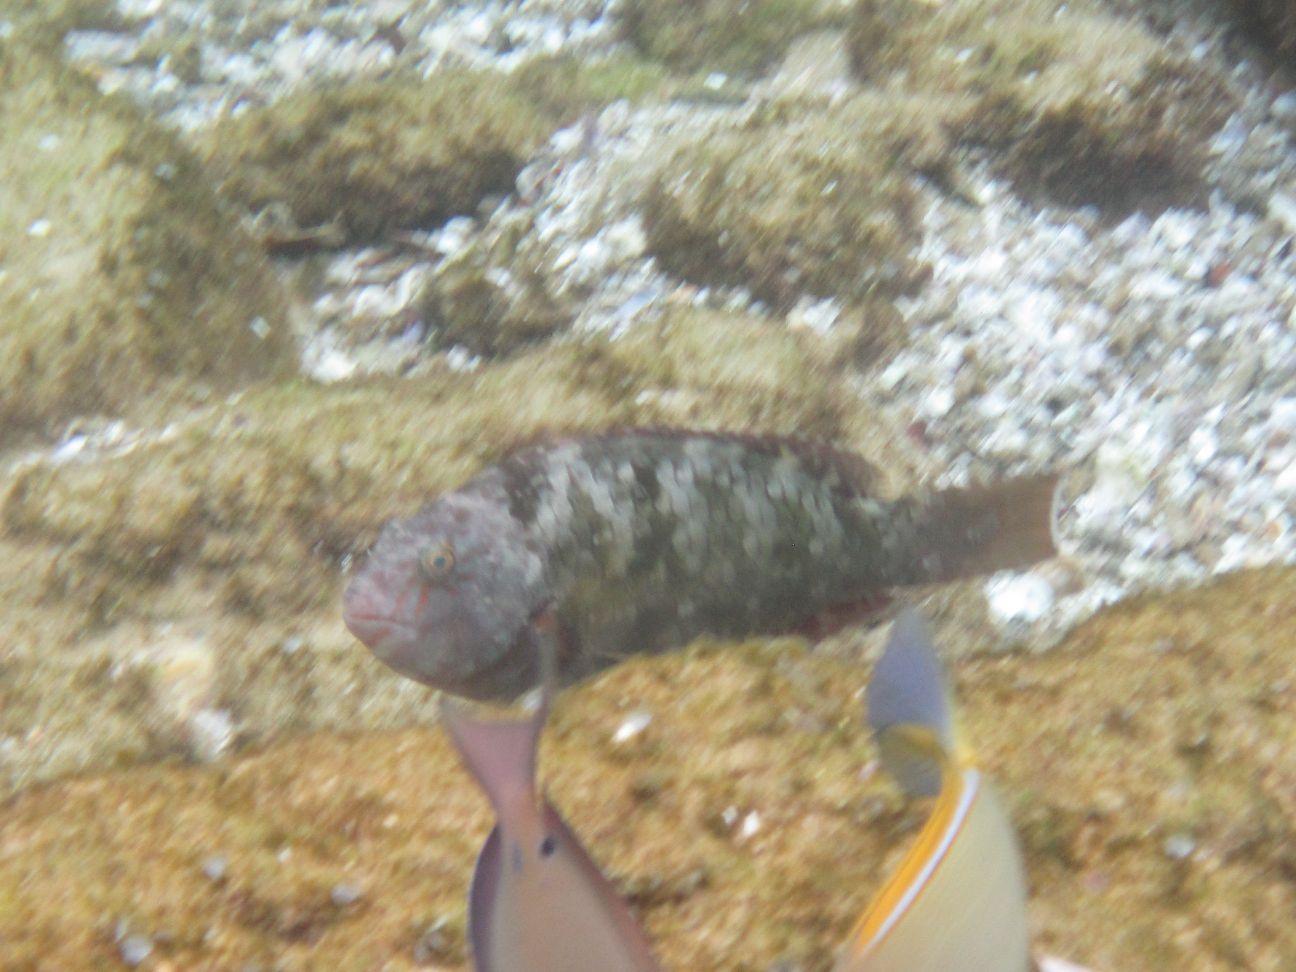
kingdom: Animalia
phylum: Chordata
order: Perciformes
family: Scaridae
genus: Calotomus
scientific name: Calotomus carolinus
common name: Bucktooth
